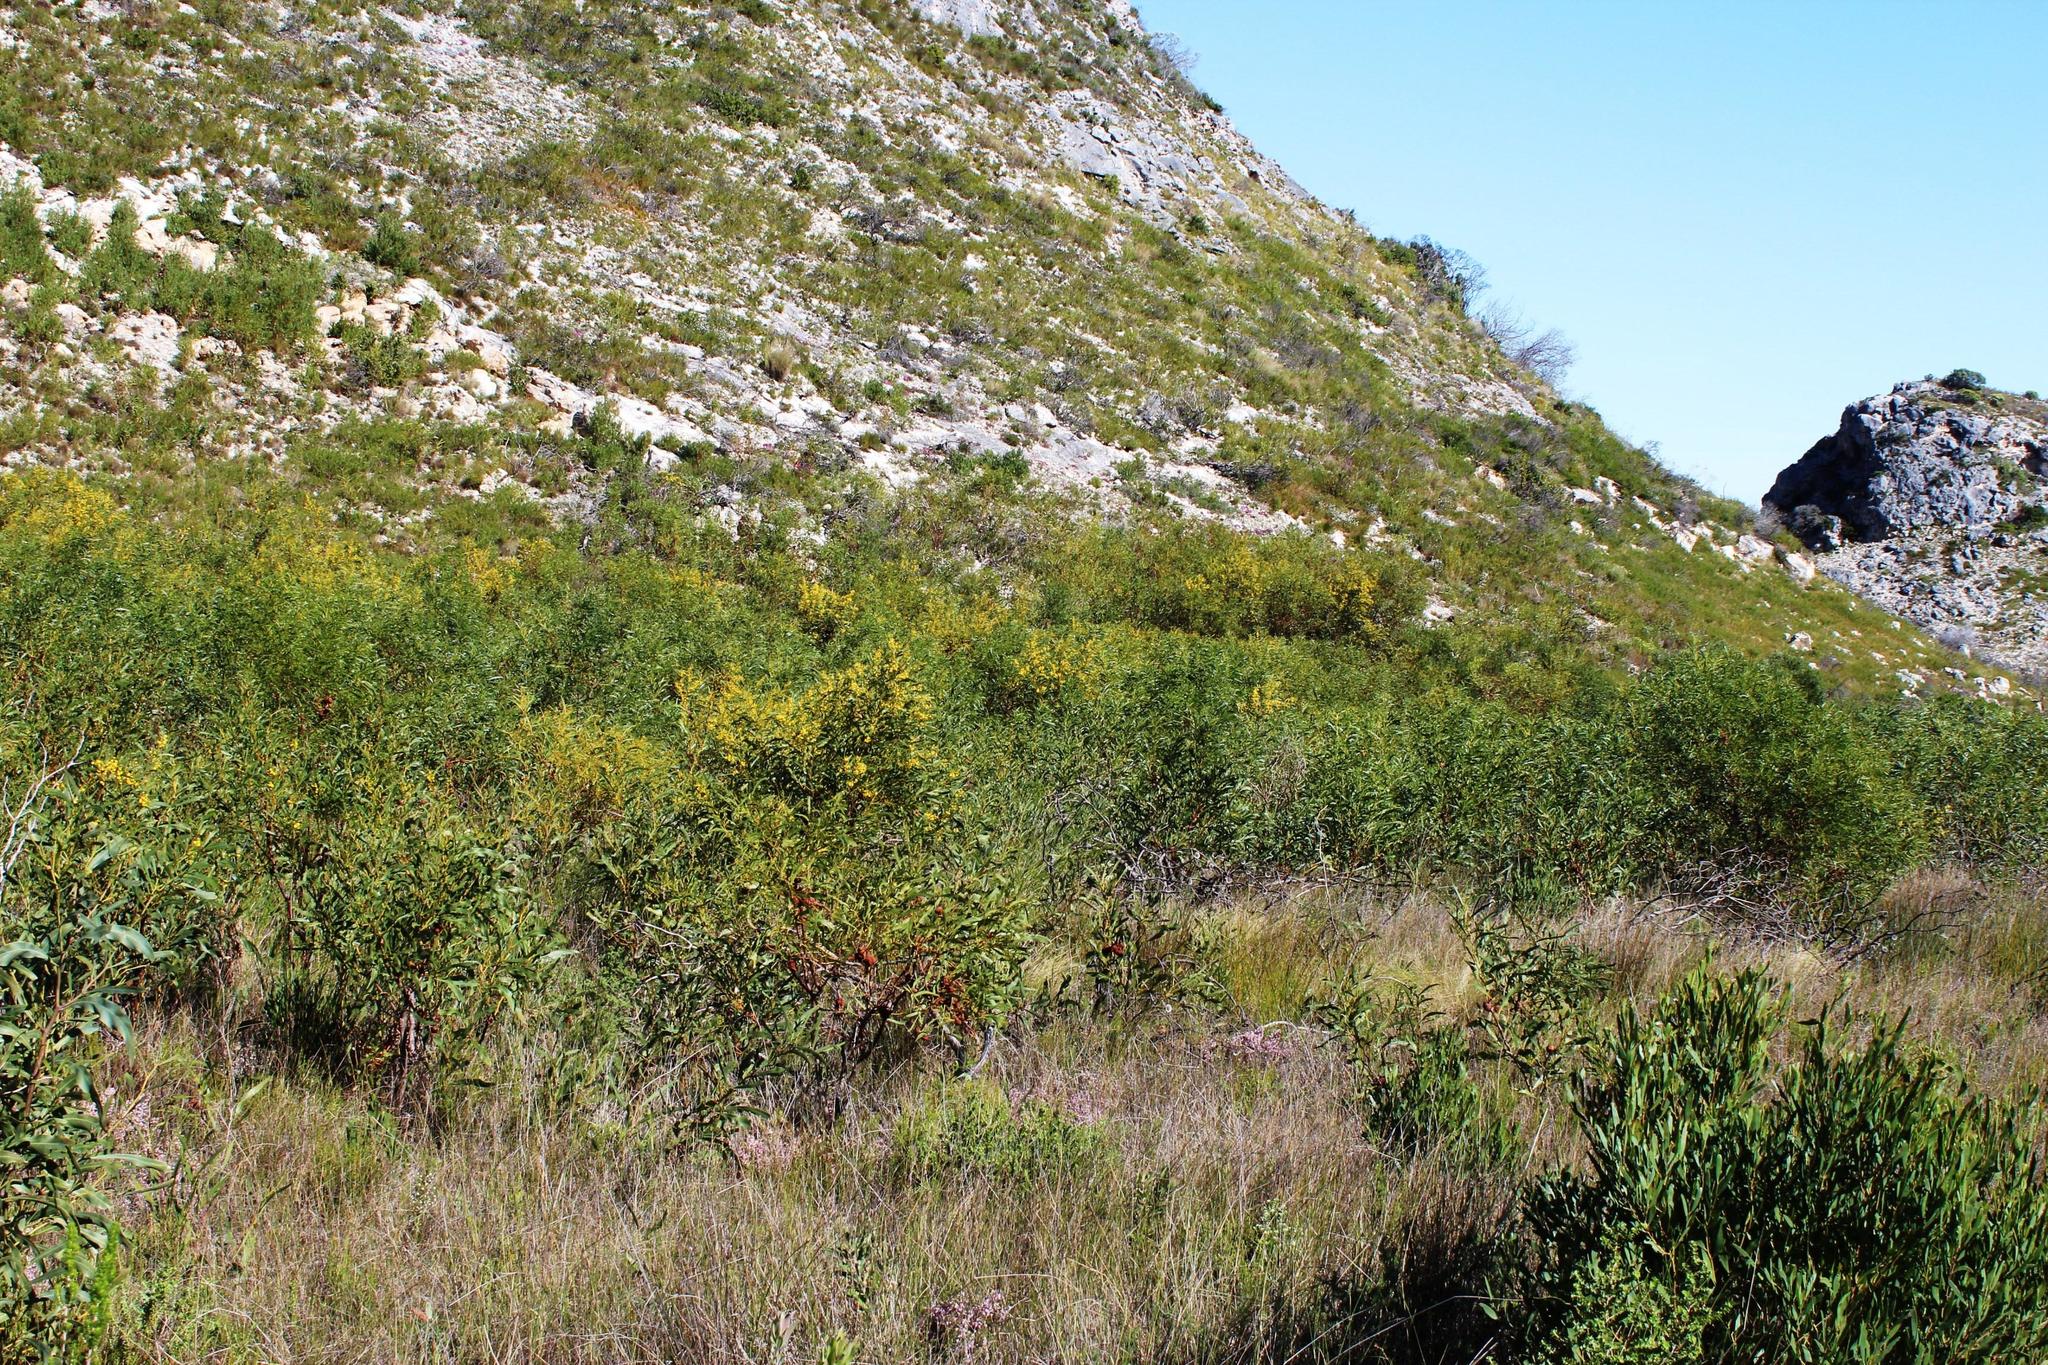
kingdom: Plantae
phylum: Tracheophyta
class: Magnoliopsida
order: Fabales
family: Fabaceae
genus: Acacia
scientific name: Acacia saligna
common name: Orange wattle
